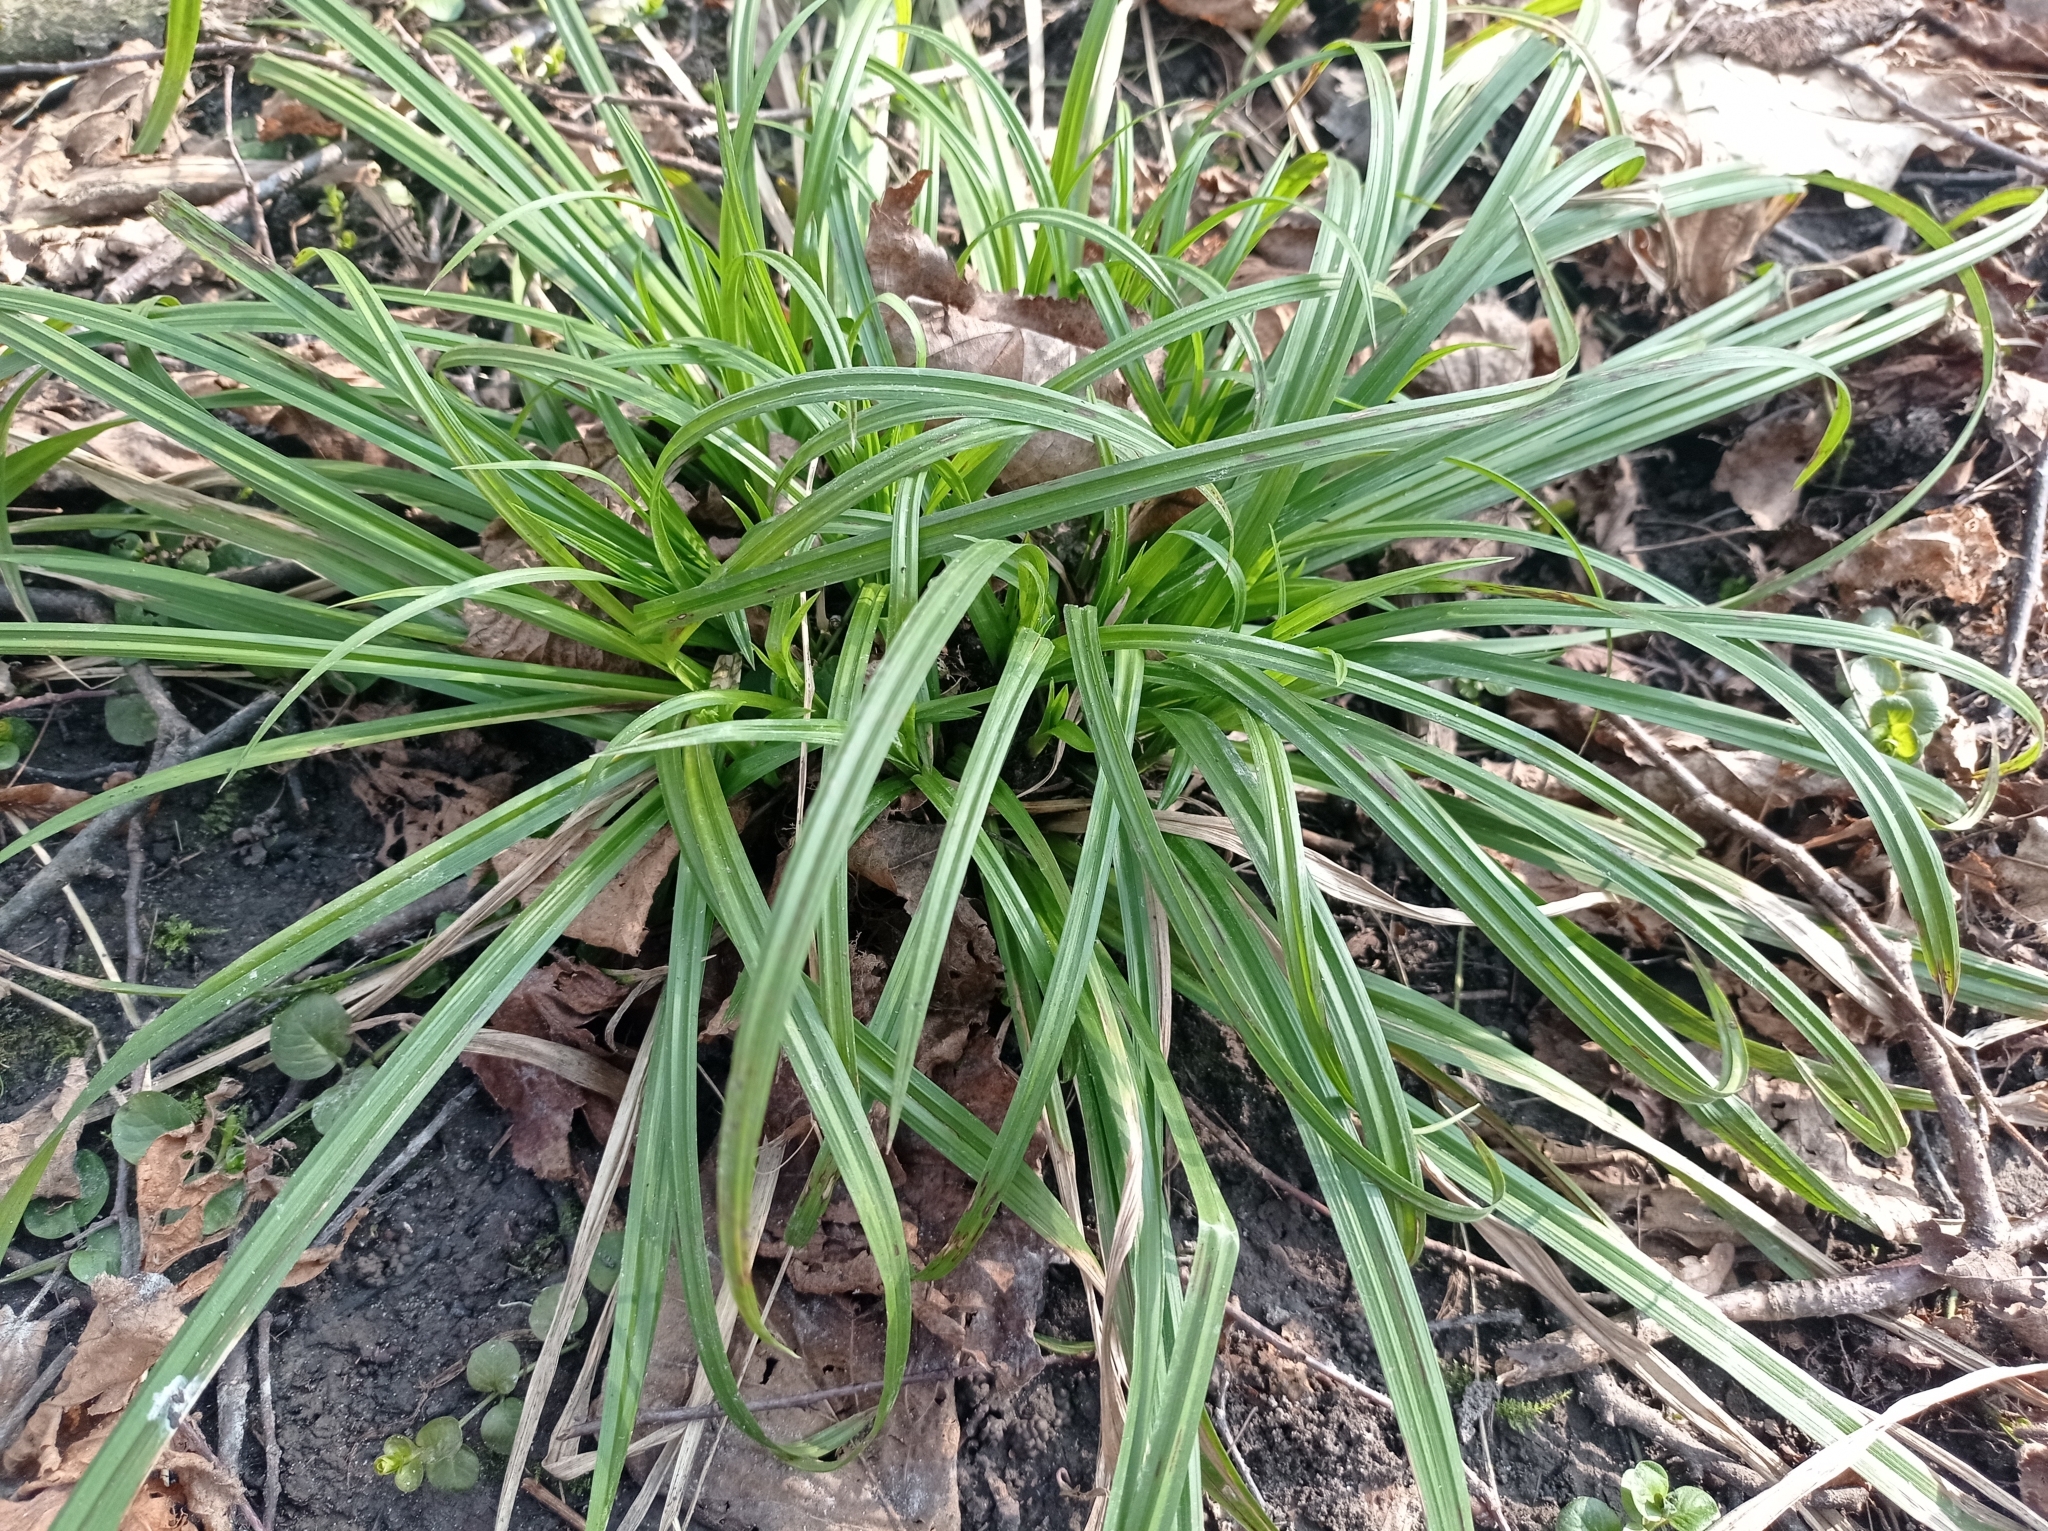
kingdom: Plantae
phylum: Tracheophyta
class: Liliopsida
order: Poales
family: Cyperaceae
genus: Carex
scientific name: Carex sylvatica
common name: Wood-sedge
